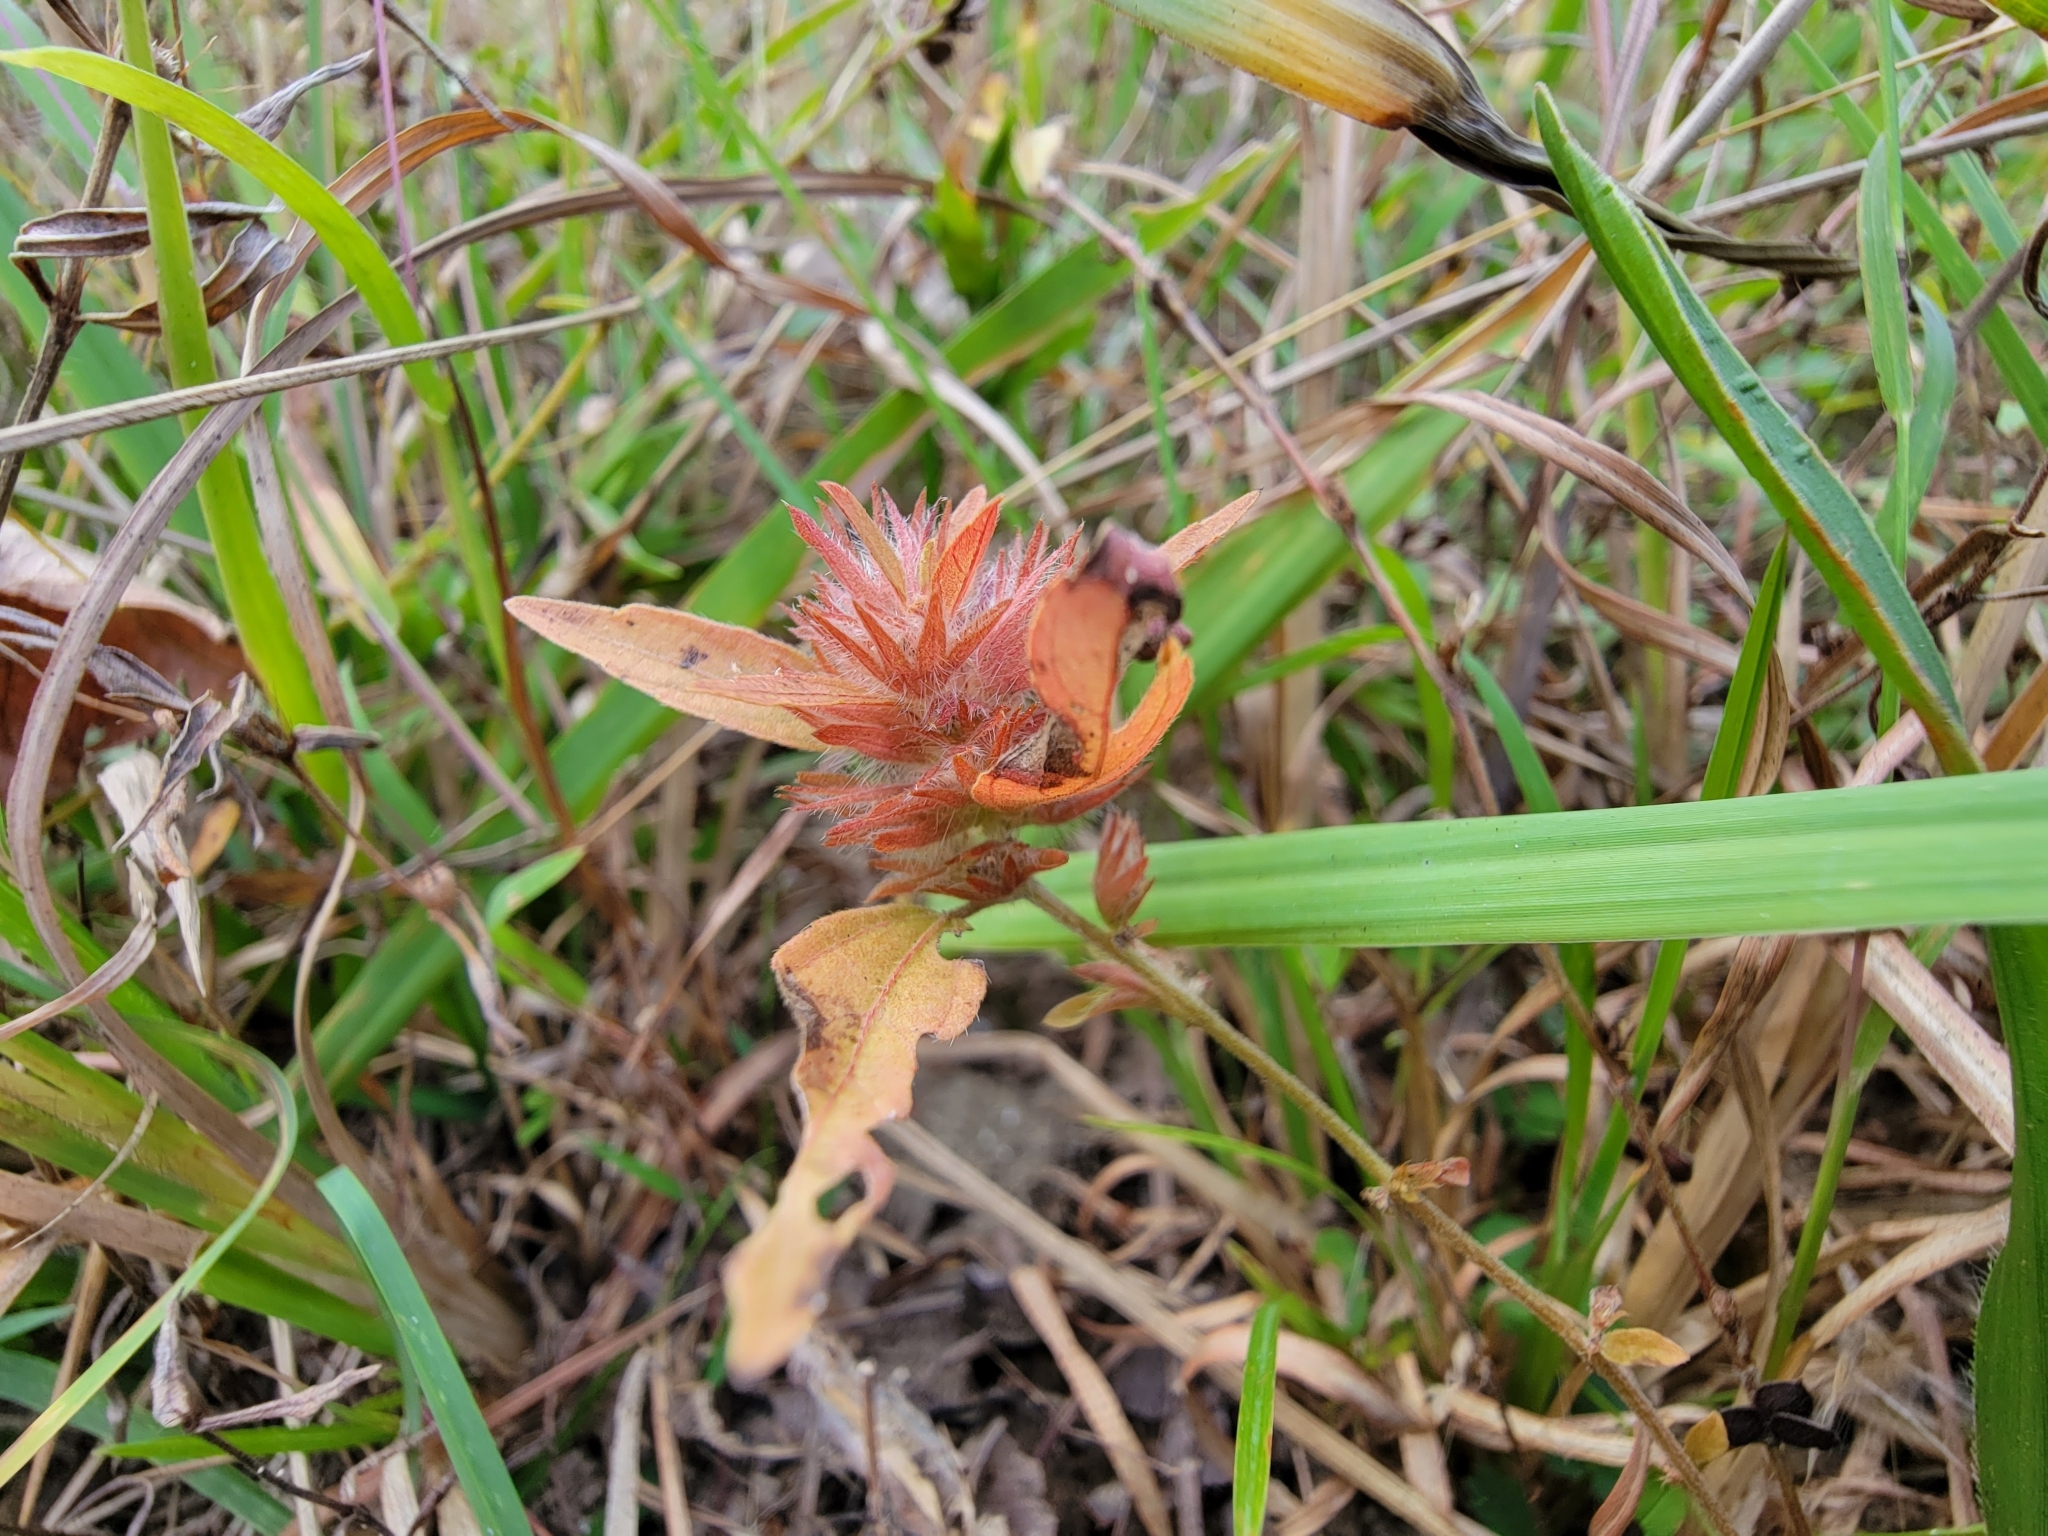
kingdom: Plantae
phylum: Tracheophyta
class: Magnoliopsida
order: Malpighiales
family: Euphorbiaceae
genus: Acalypha
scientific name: Acalypha gracilens
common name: Slender three-seeded mercury
